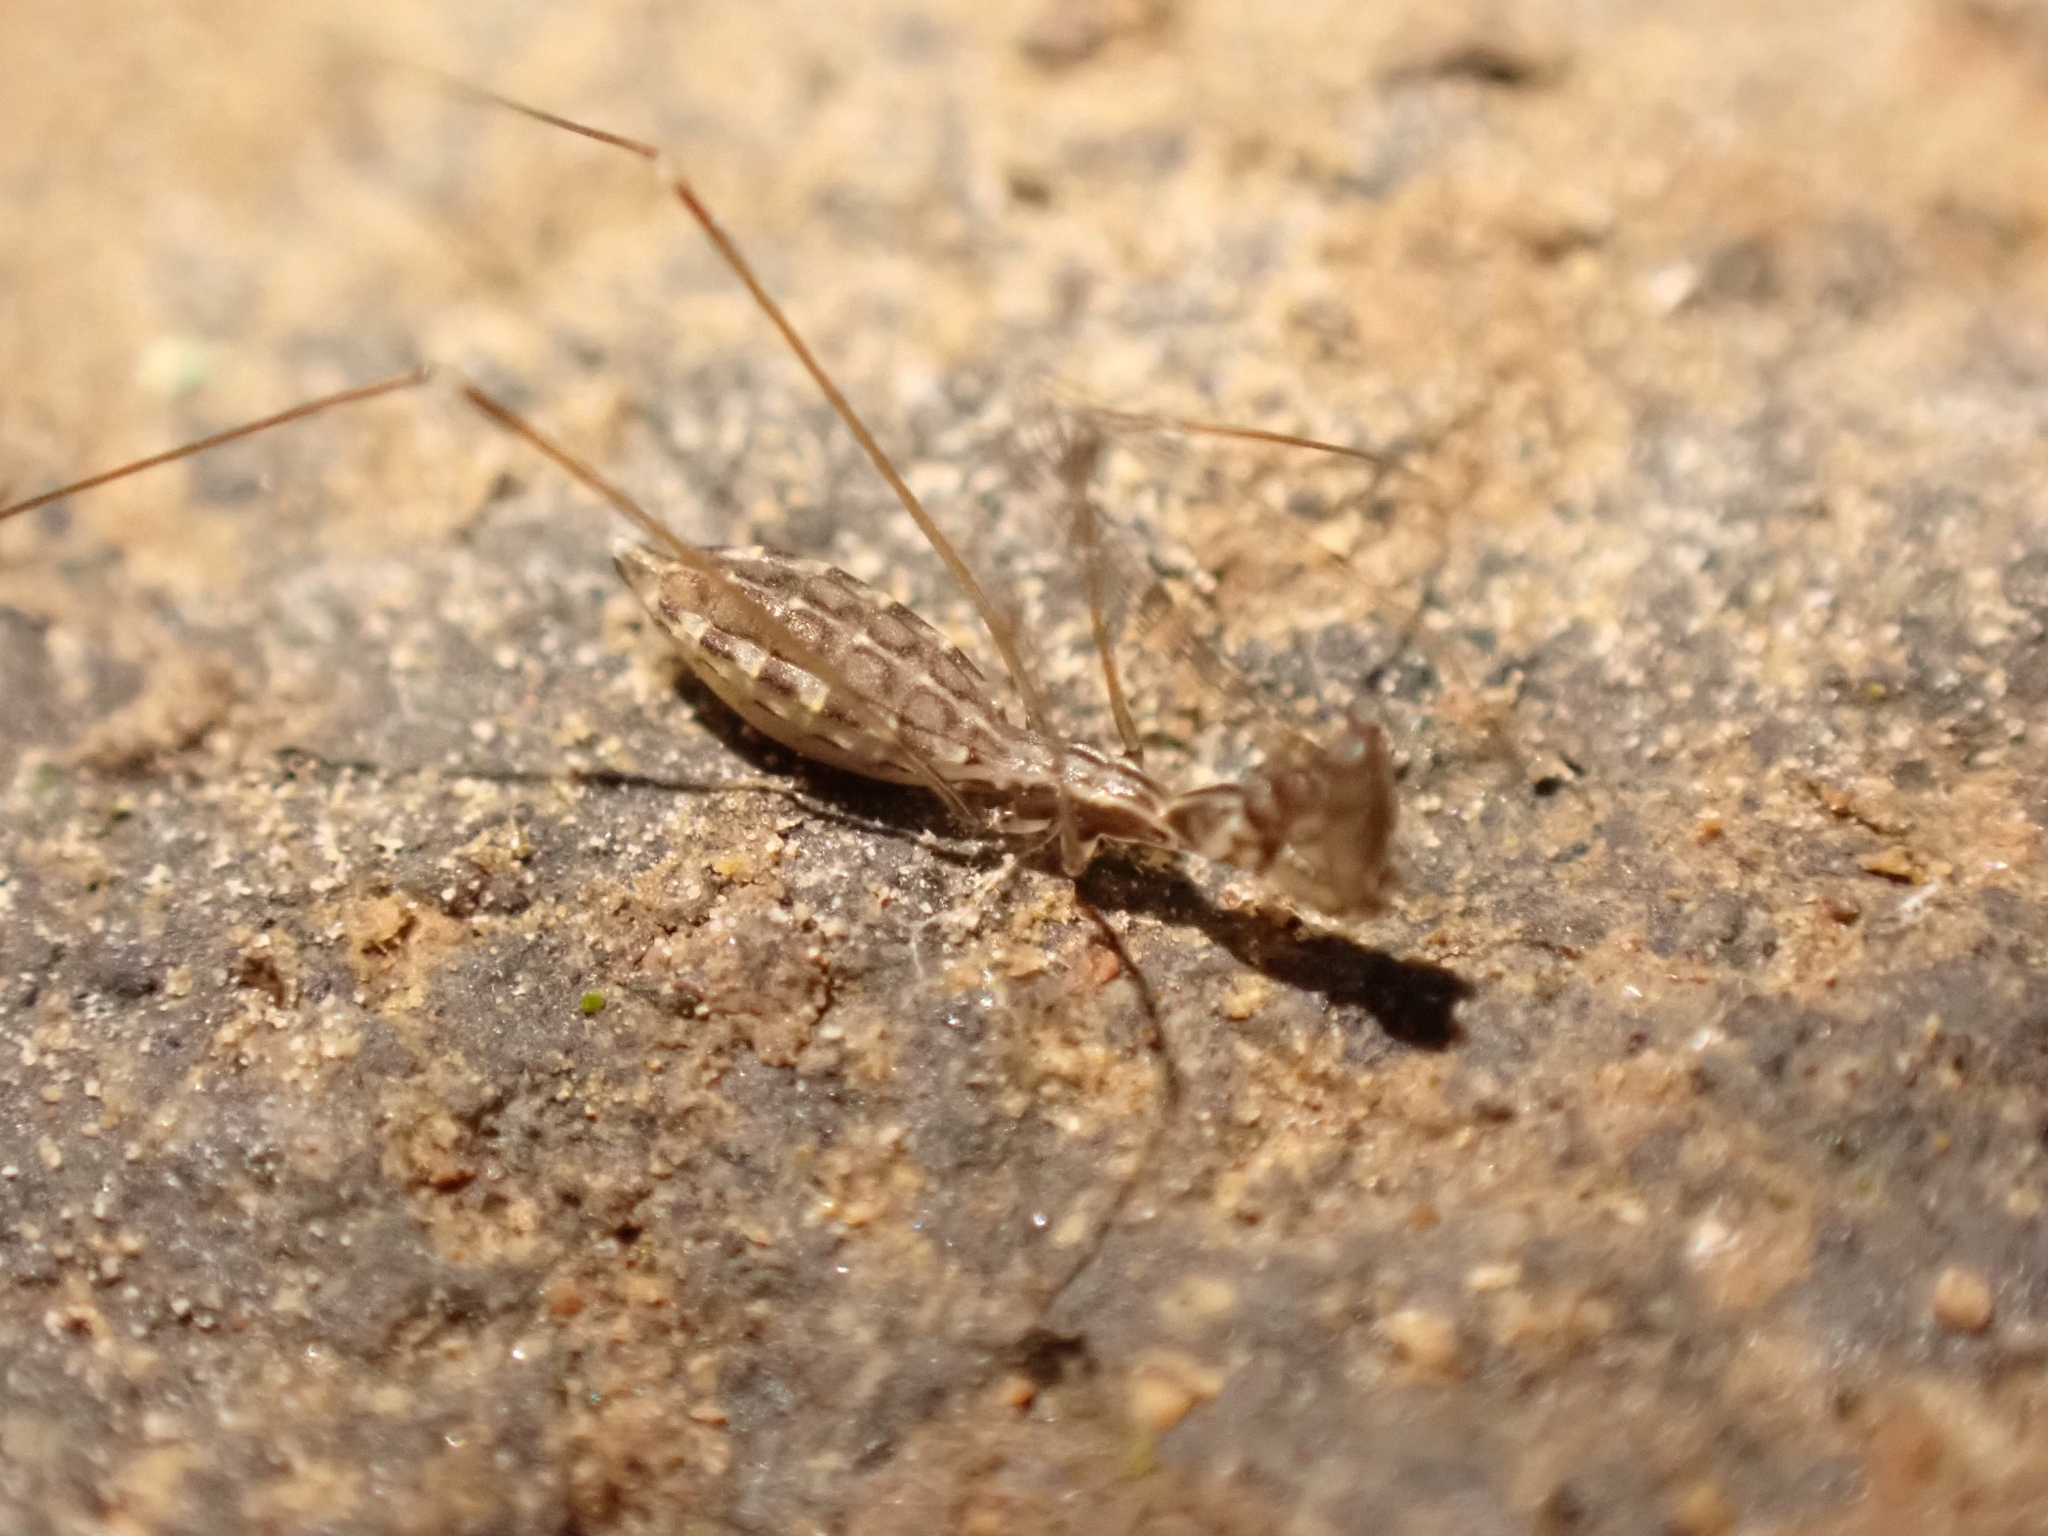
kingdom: Animalia
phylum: Arthropoda
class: Insecta
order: Hemiptera
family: Reduviidae
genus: Ploiaria
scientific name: Ploiaria chilensis
